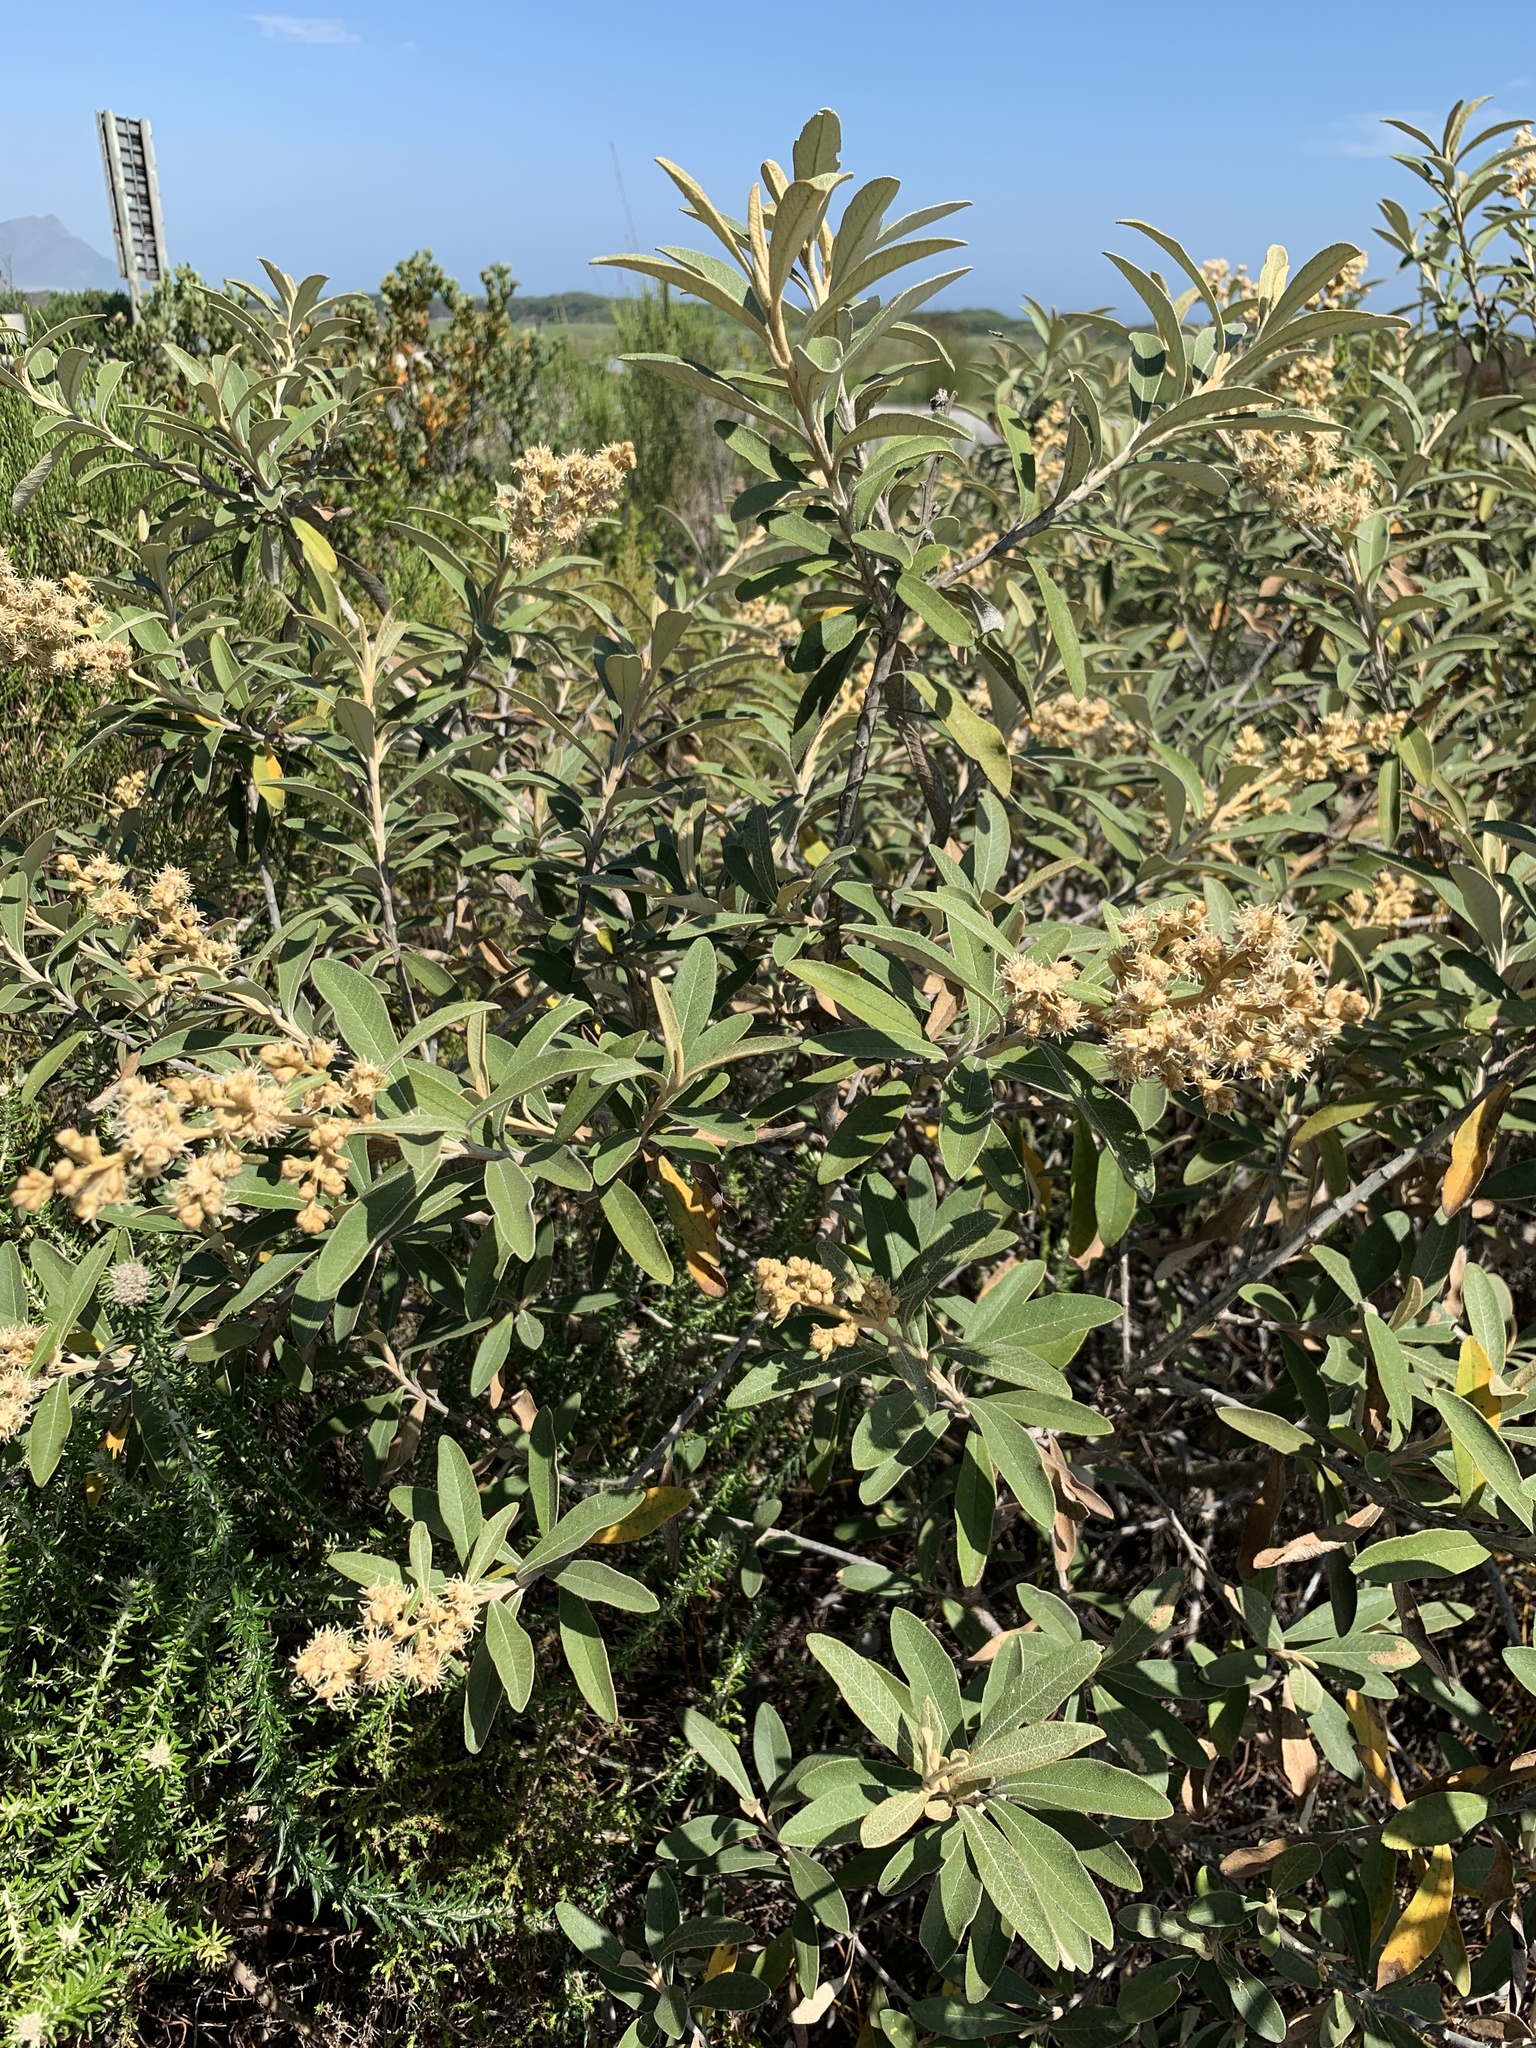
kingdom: Plantae
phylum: Tracheophyta
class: Magnoliopsida
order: Asterales
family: Asteraceae
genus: Tarchonanthus
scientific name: Tarchonanthus littoralis
